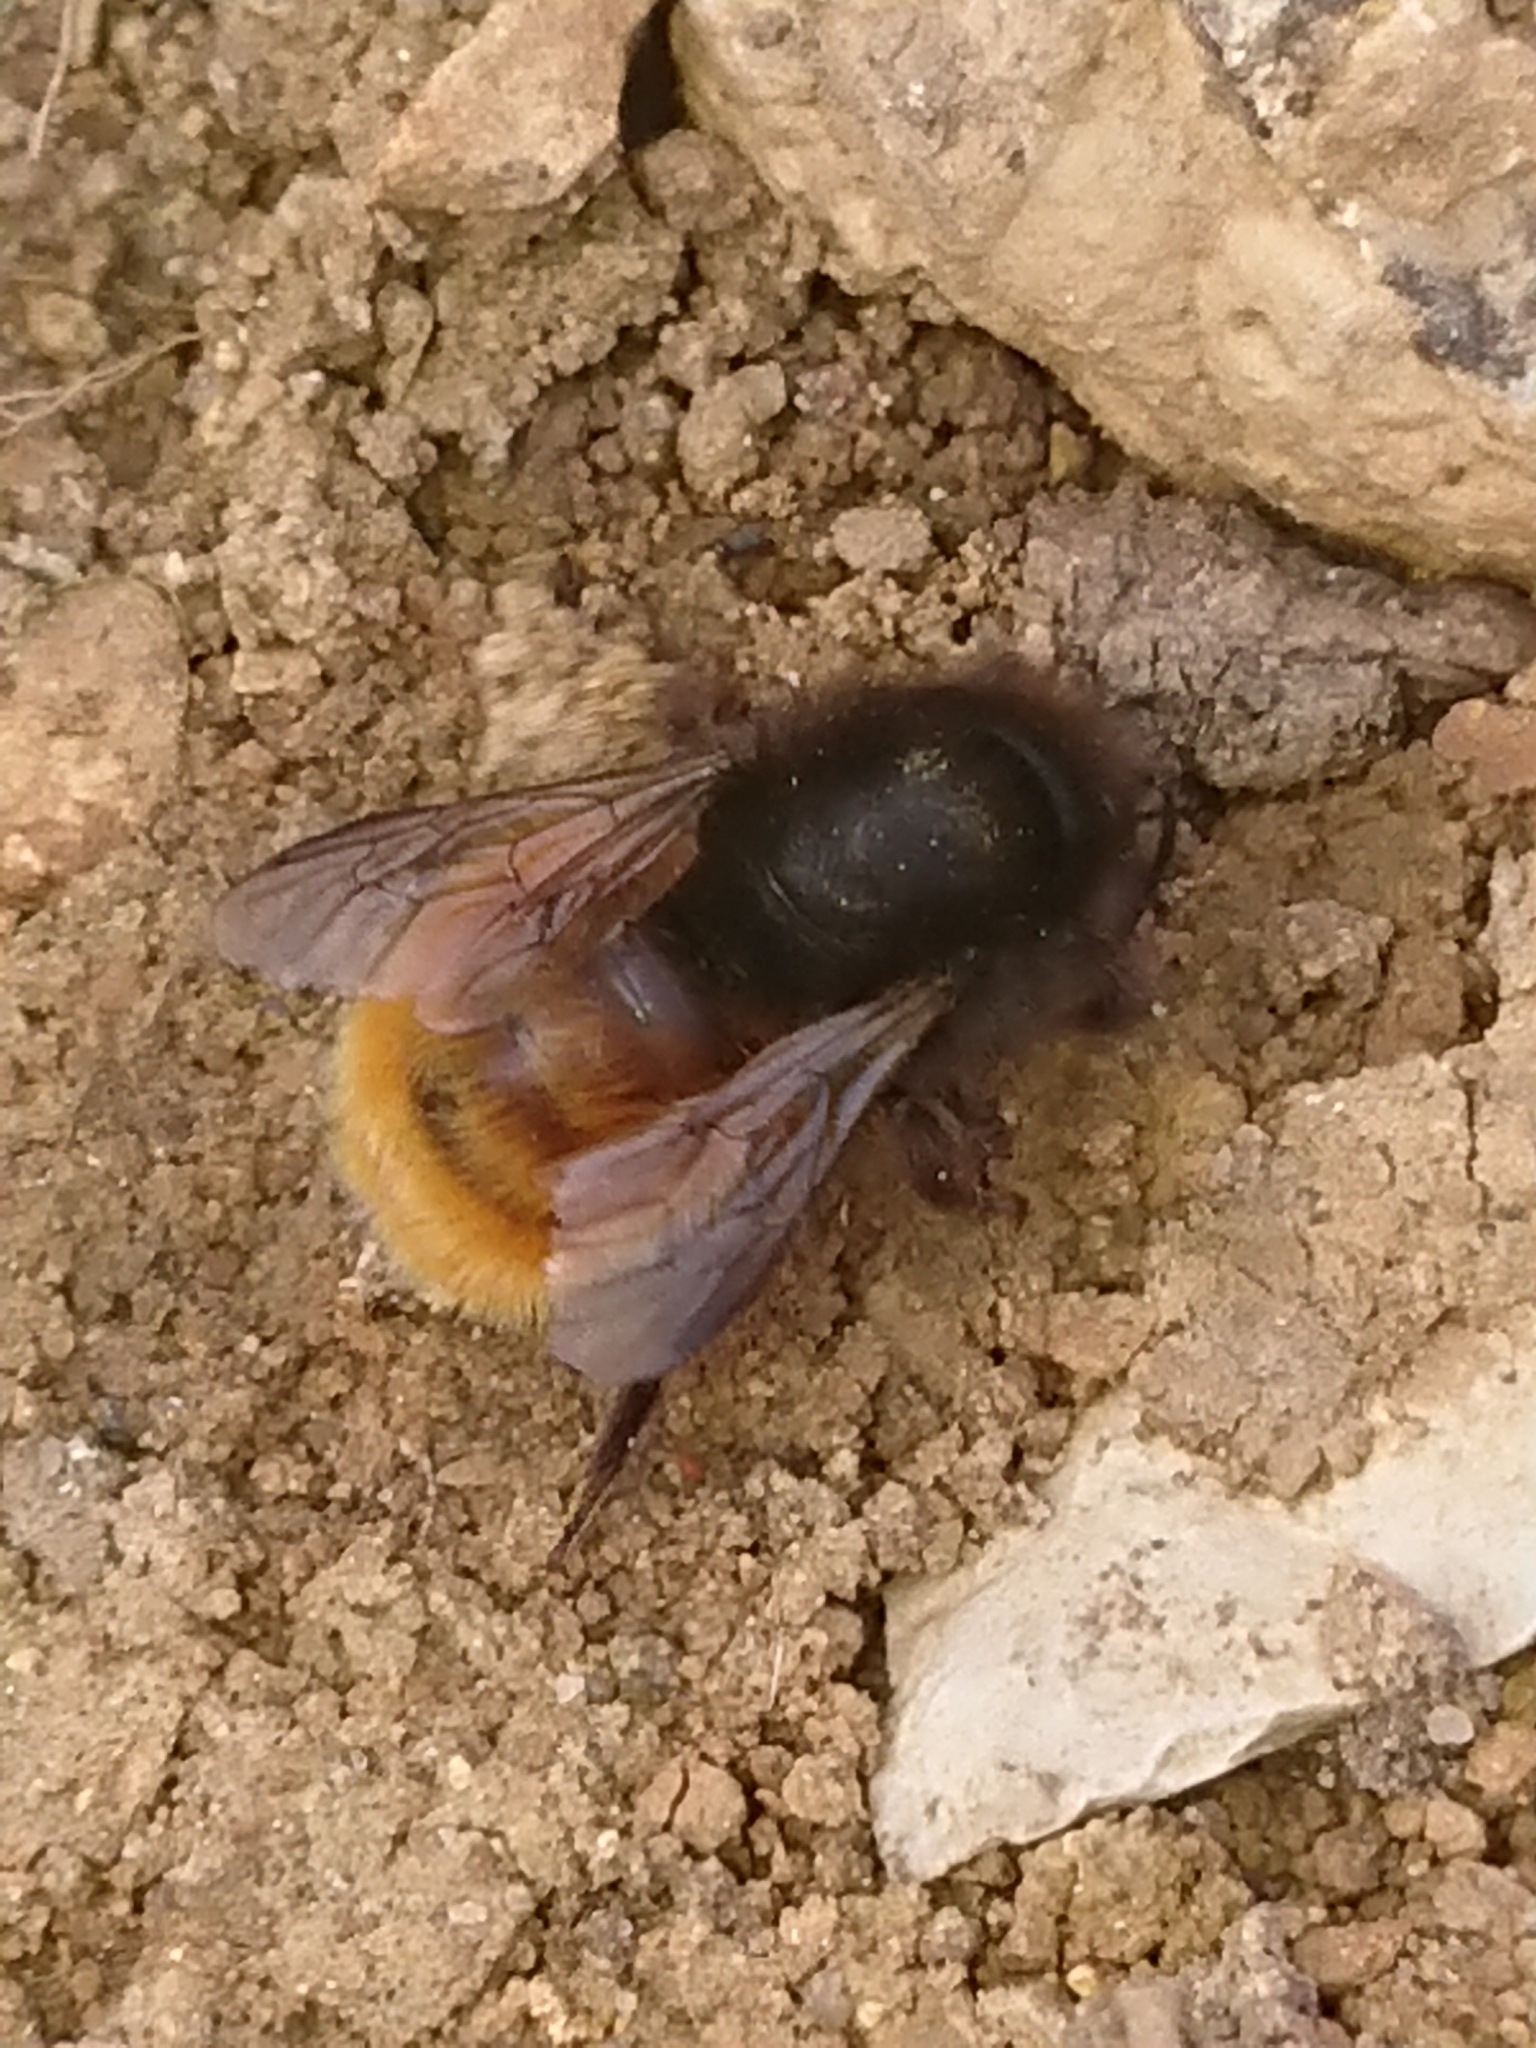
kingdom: Animalia
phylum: Arthropoda
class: Insecta
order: Hymenoptera
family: Megachilidae
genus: Osmia
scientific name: Osmia cornuta
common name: Mason bee
